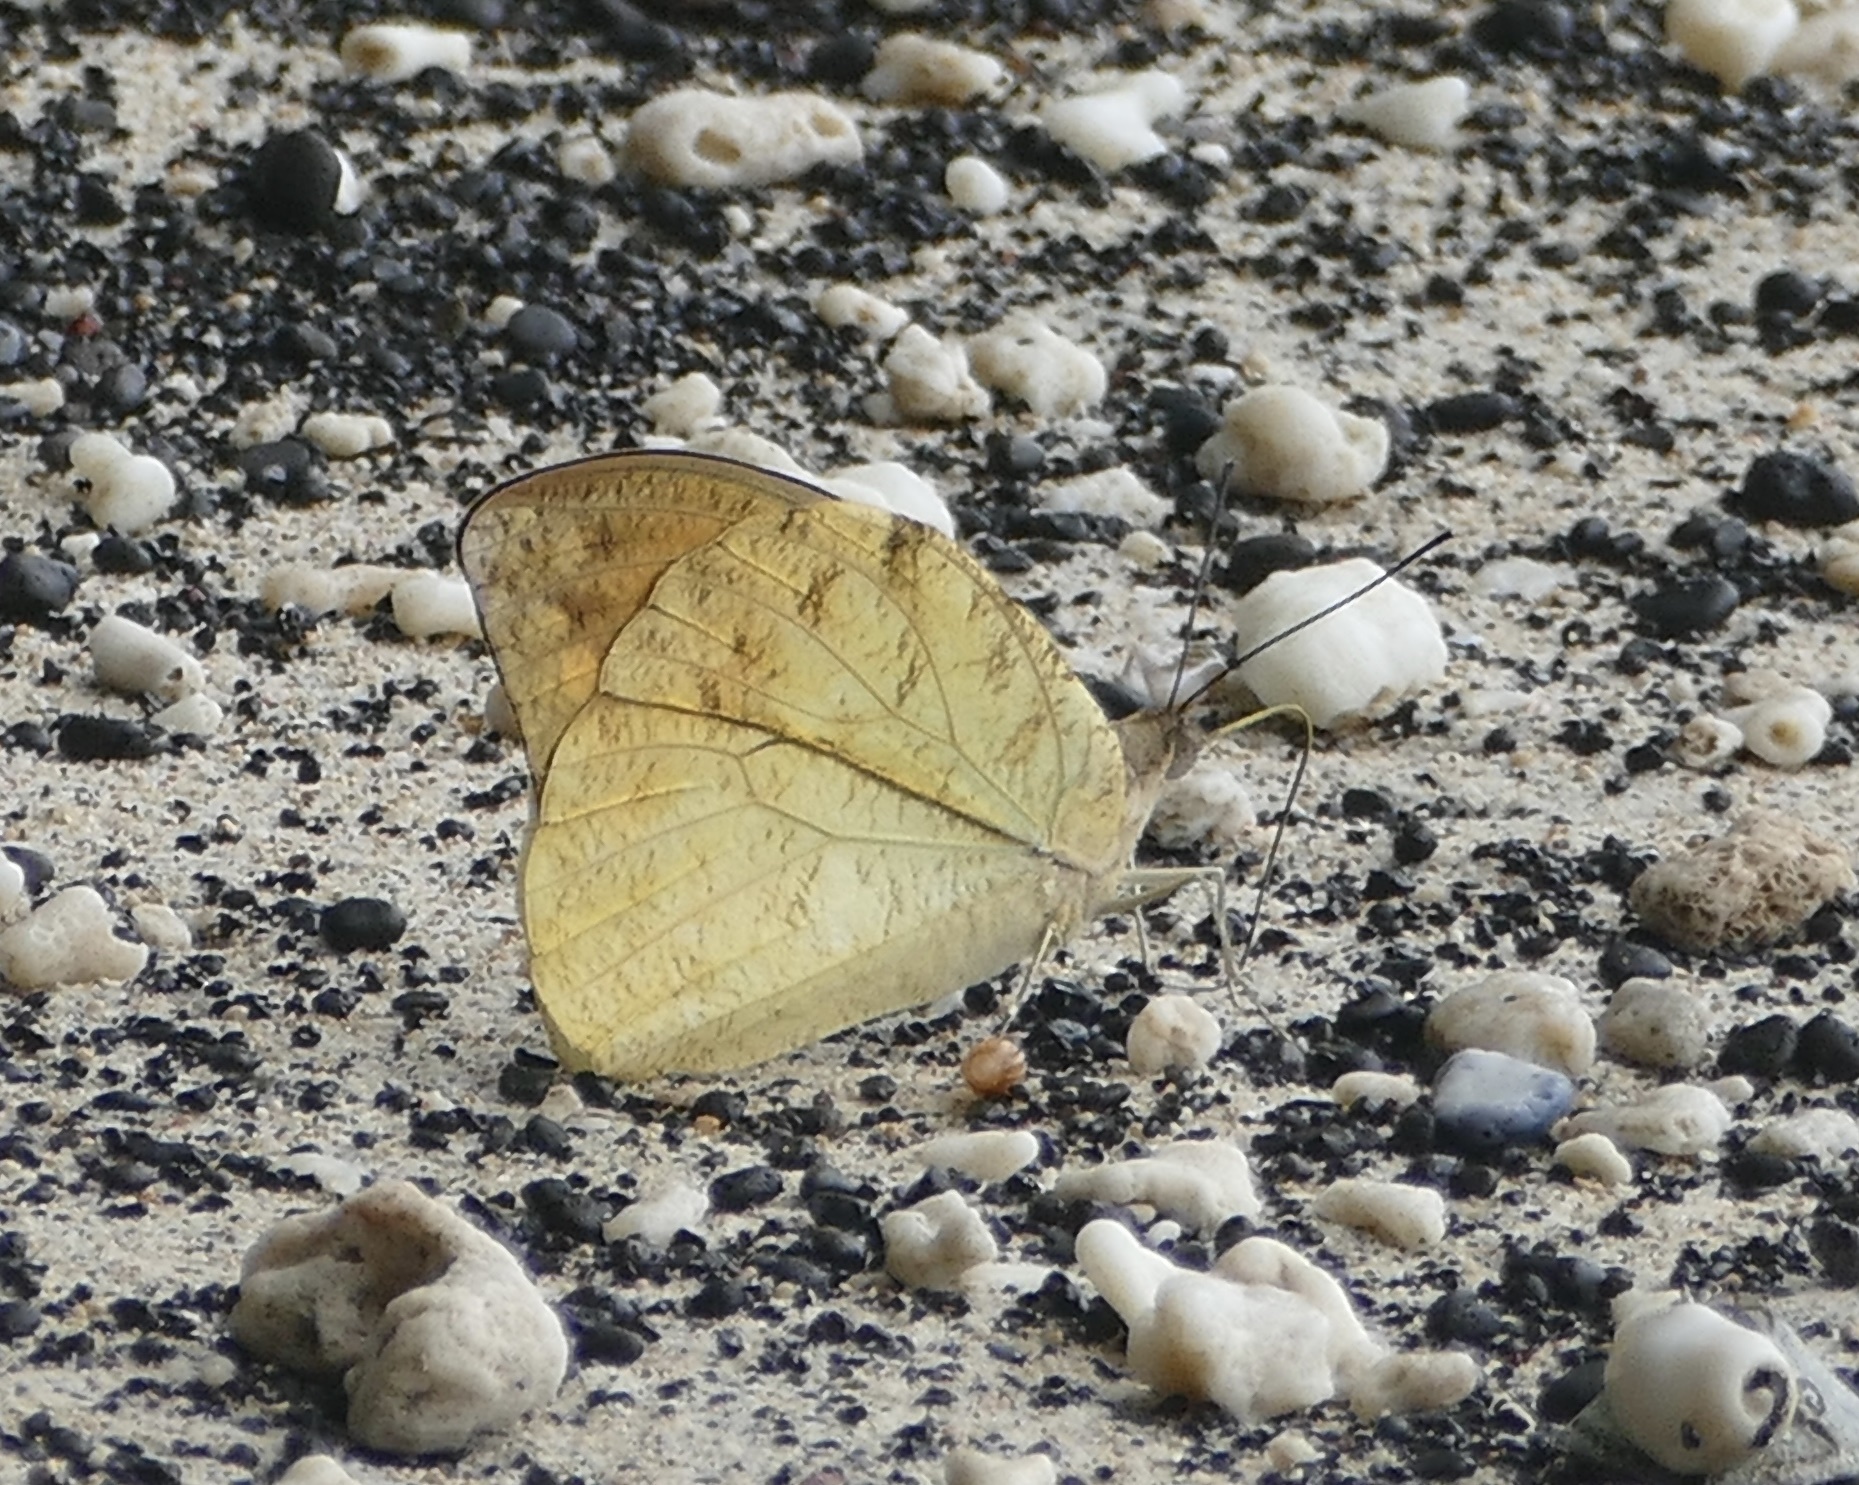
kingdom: Animalia
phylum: Arthropoda
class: Insecta
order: Lepidoptera
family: Pieridae
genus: Hebomoia
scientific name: Hebomoia glaucippe
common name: Great orange tip
